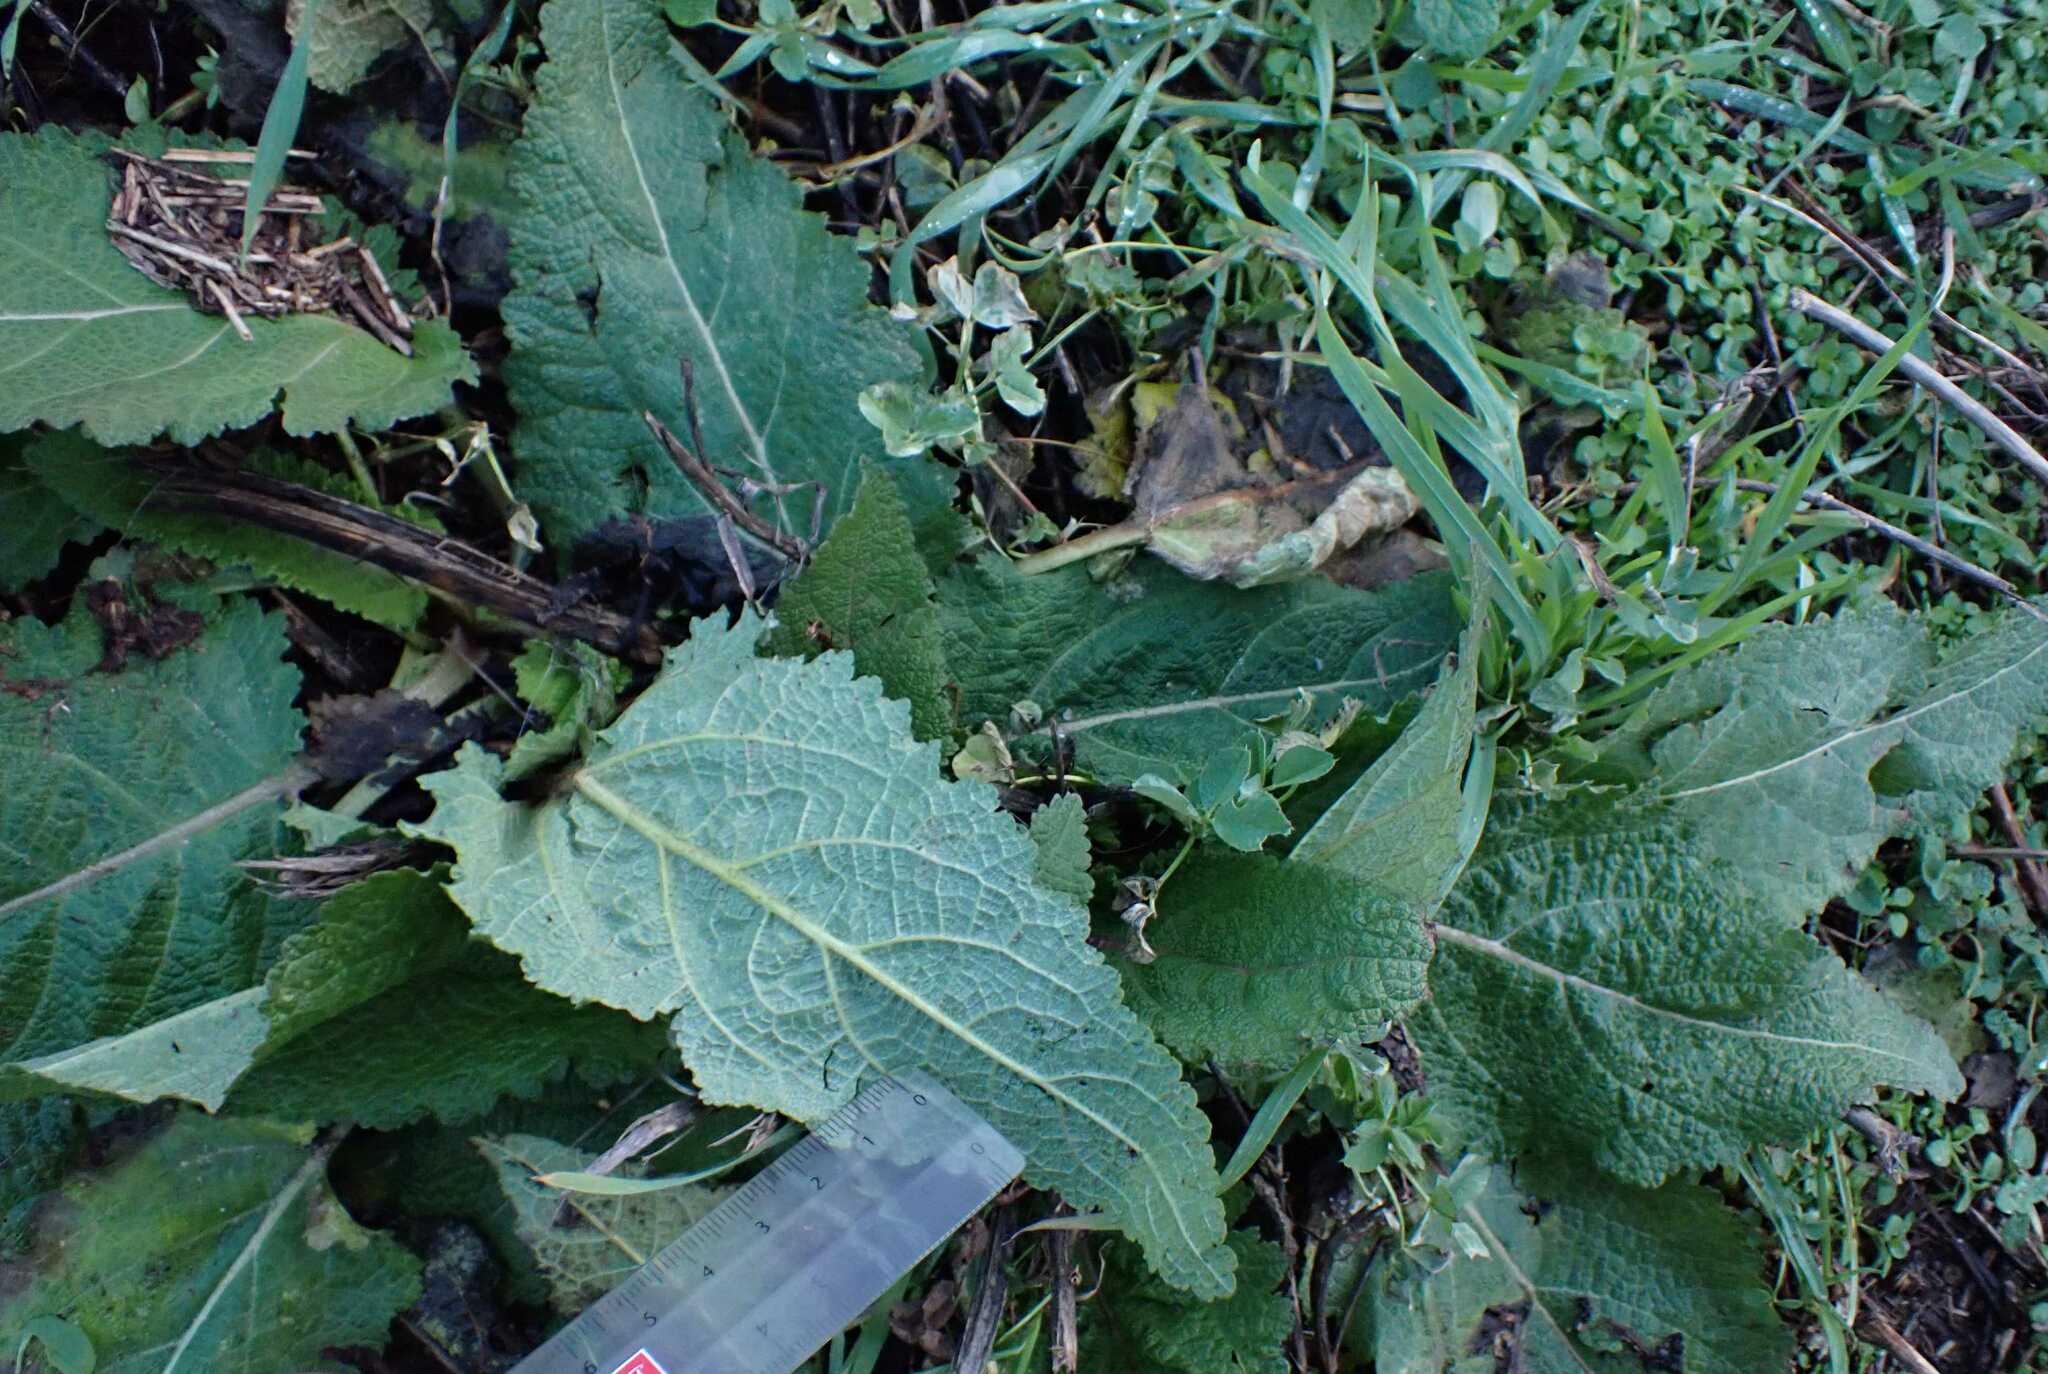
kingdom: Plantae
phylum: Tracheophyta
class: Magnoliopsida
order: Lamiales
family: Lamiaceae
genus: Salvia
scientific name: Salvia pratensis
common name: Meadow sage
